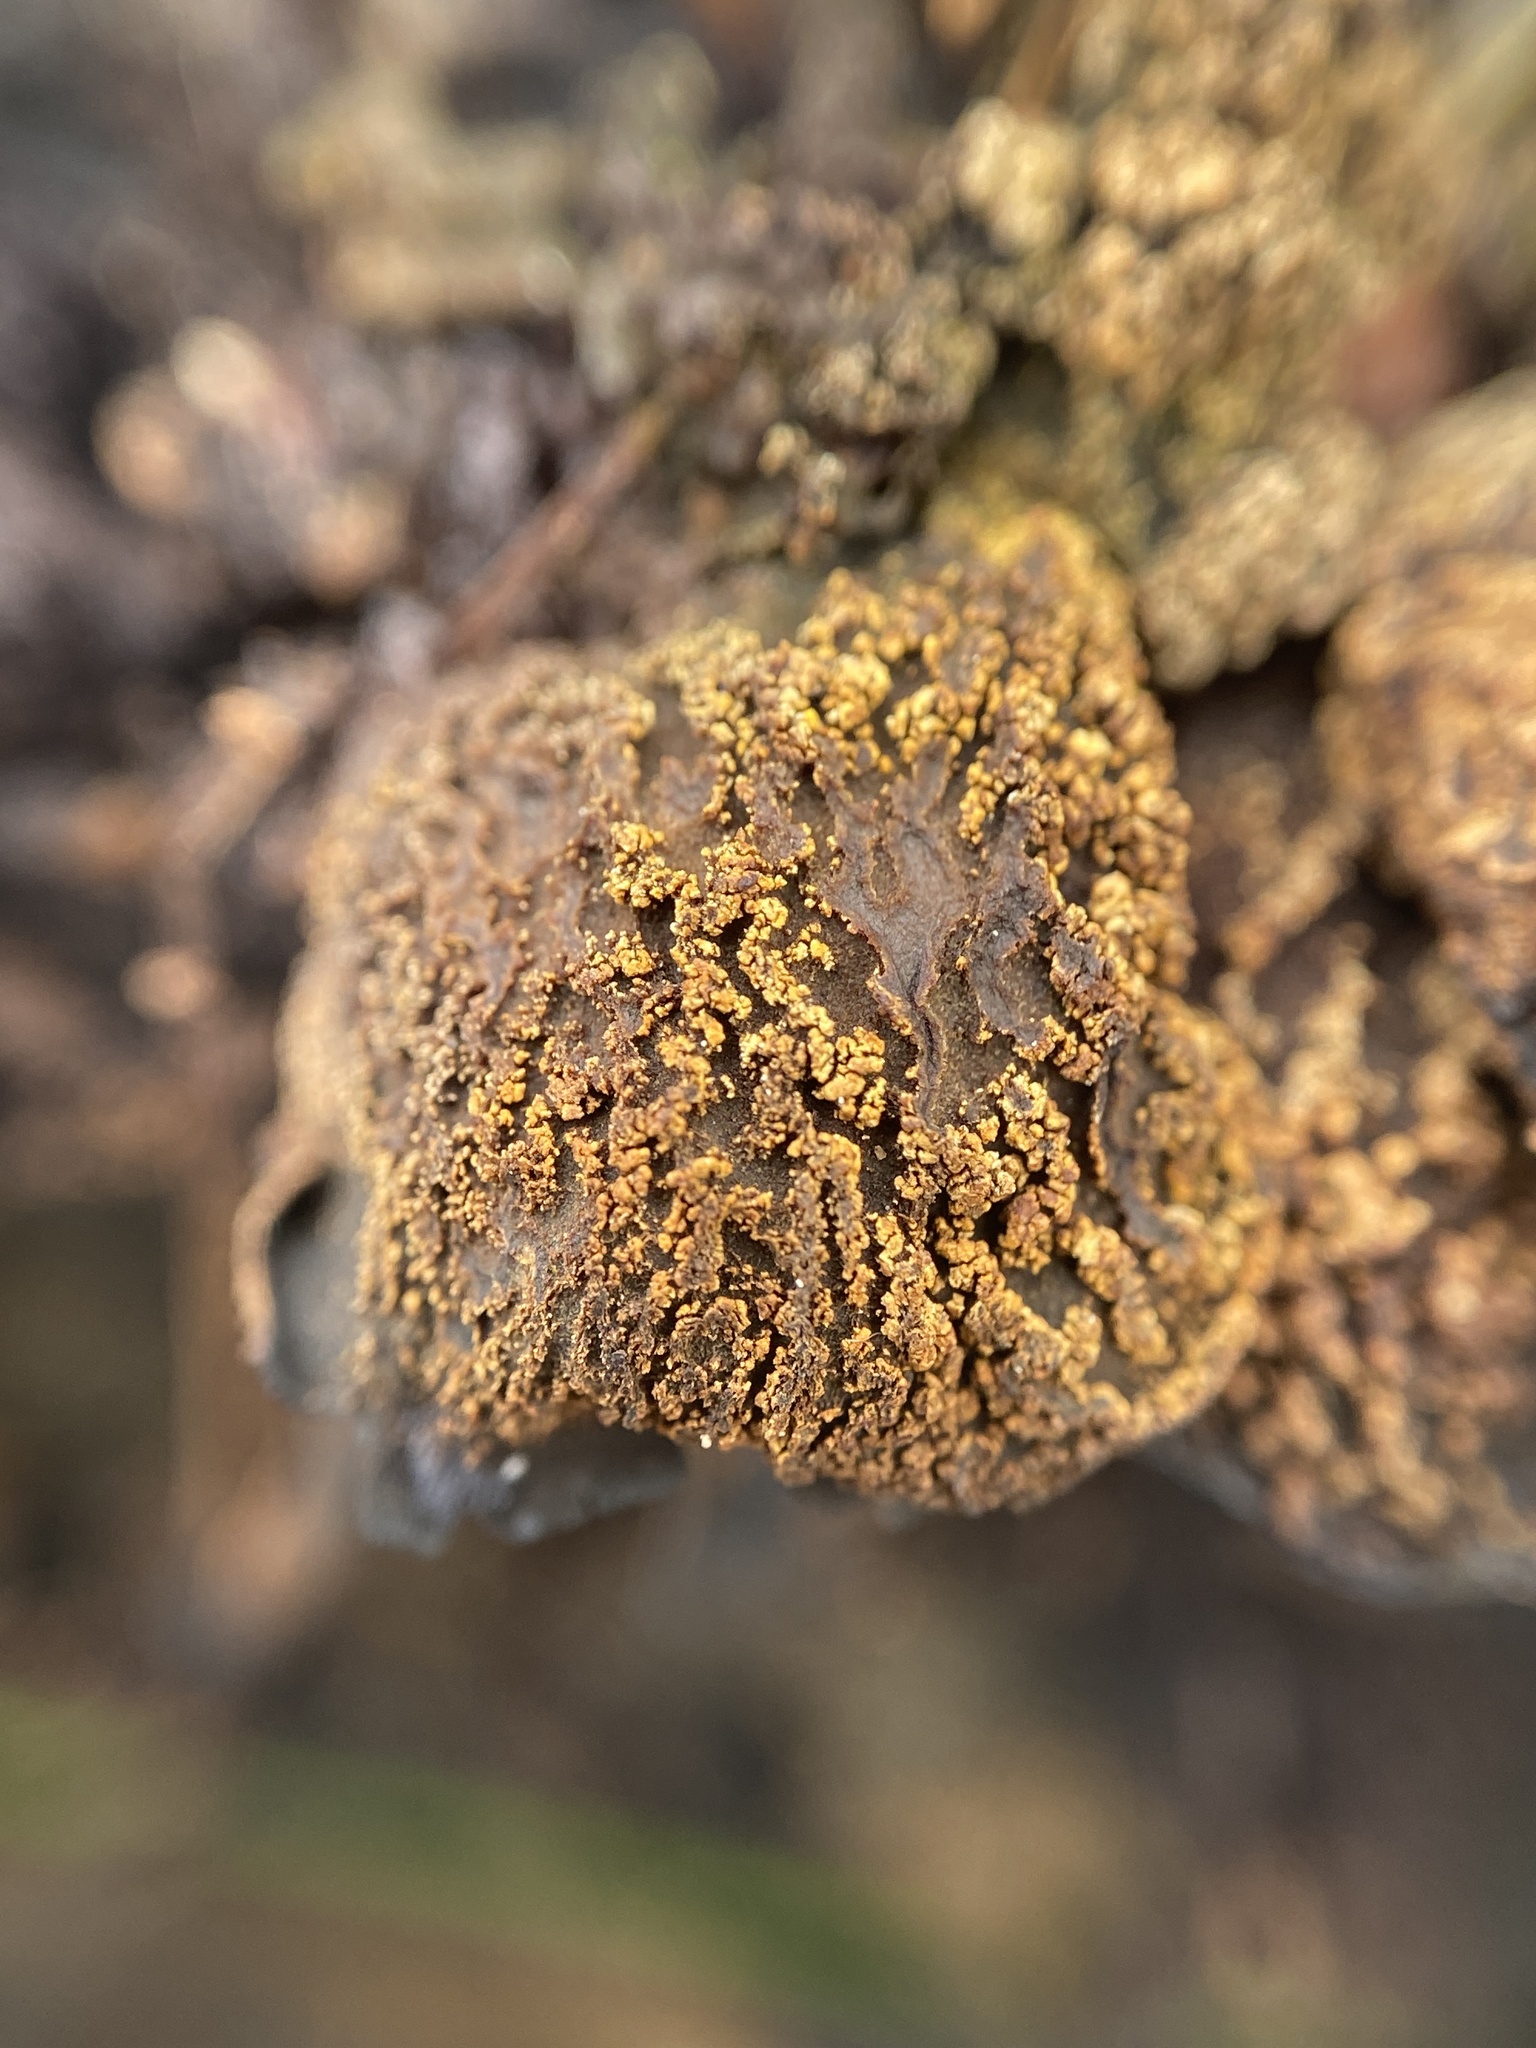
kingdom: Fungi
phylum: Ascomycota
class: Leotiomycetes
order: Helotiales
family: Cordieritidaceae
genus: Diplocarpa
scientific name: Diplocarpa irregularis
